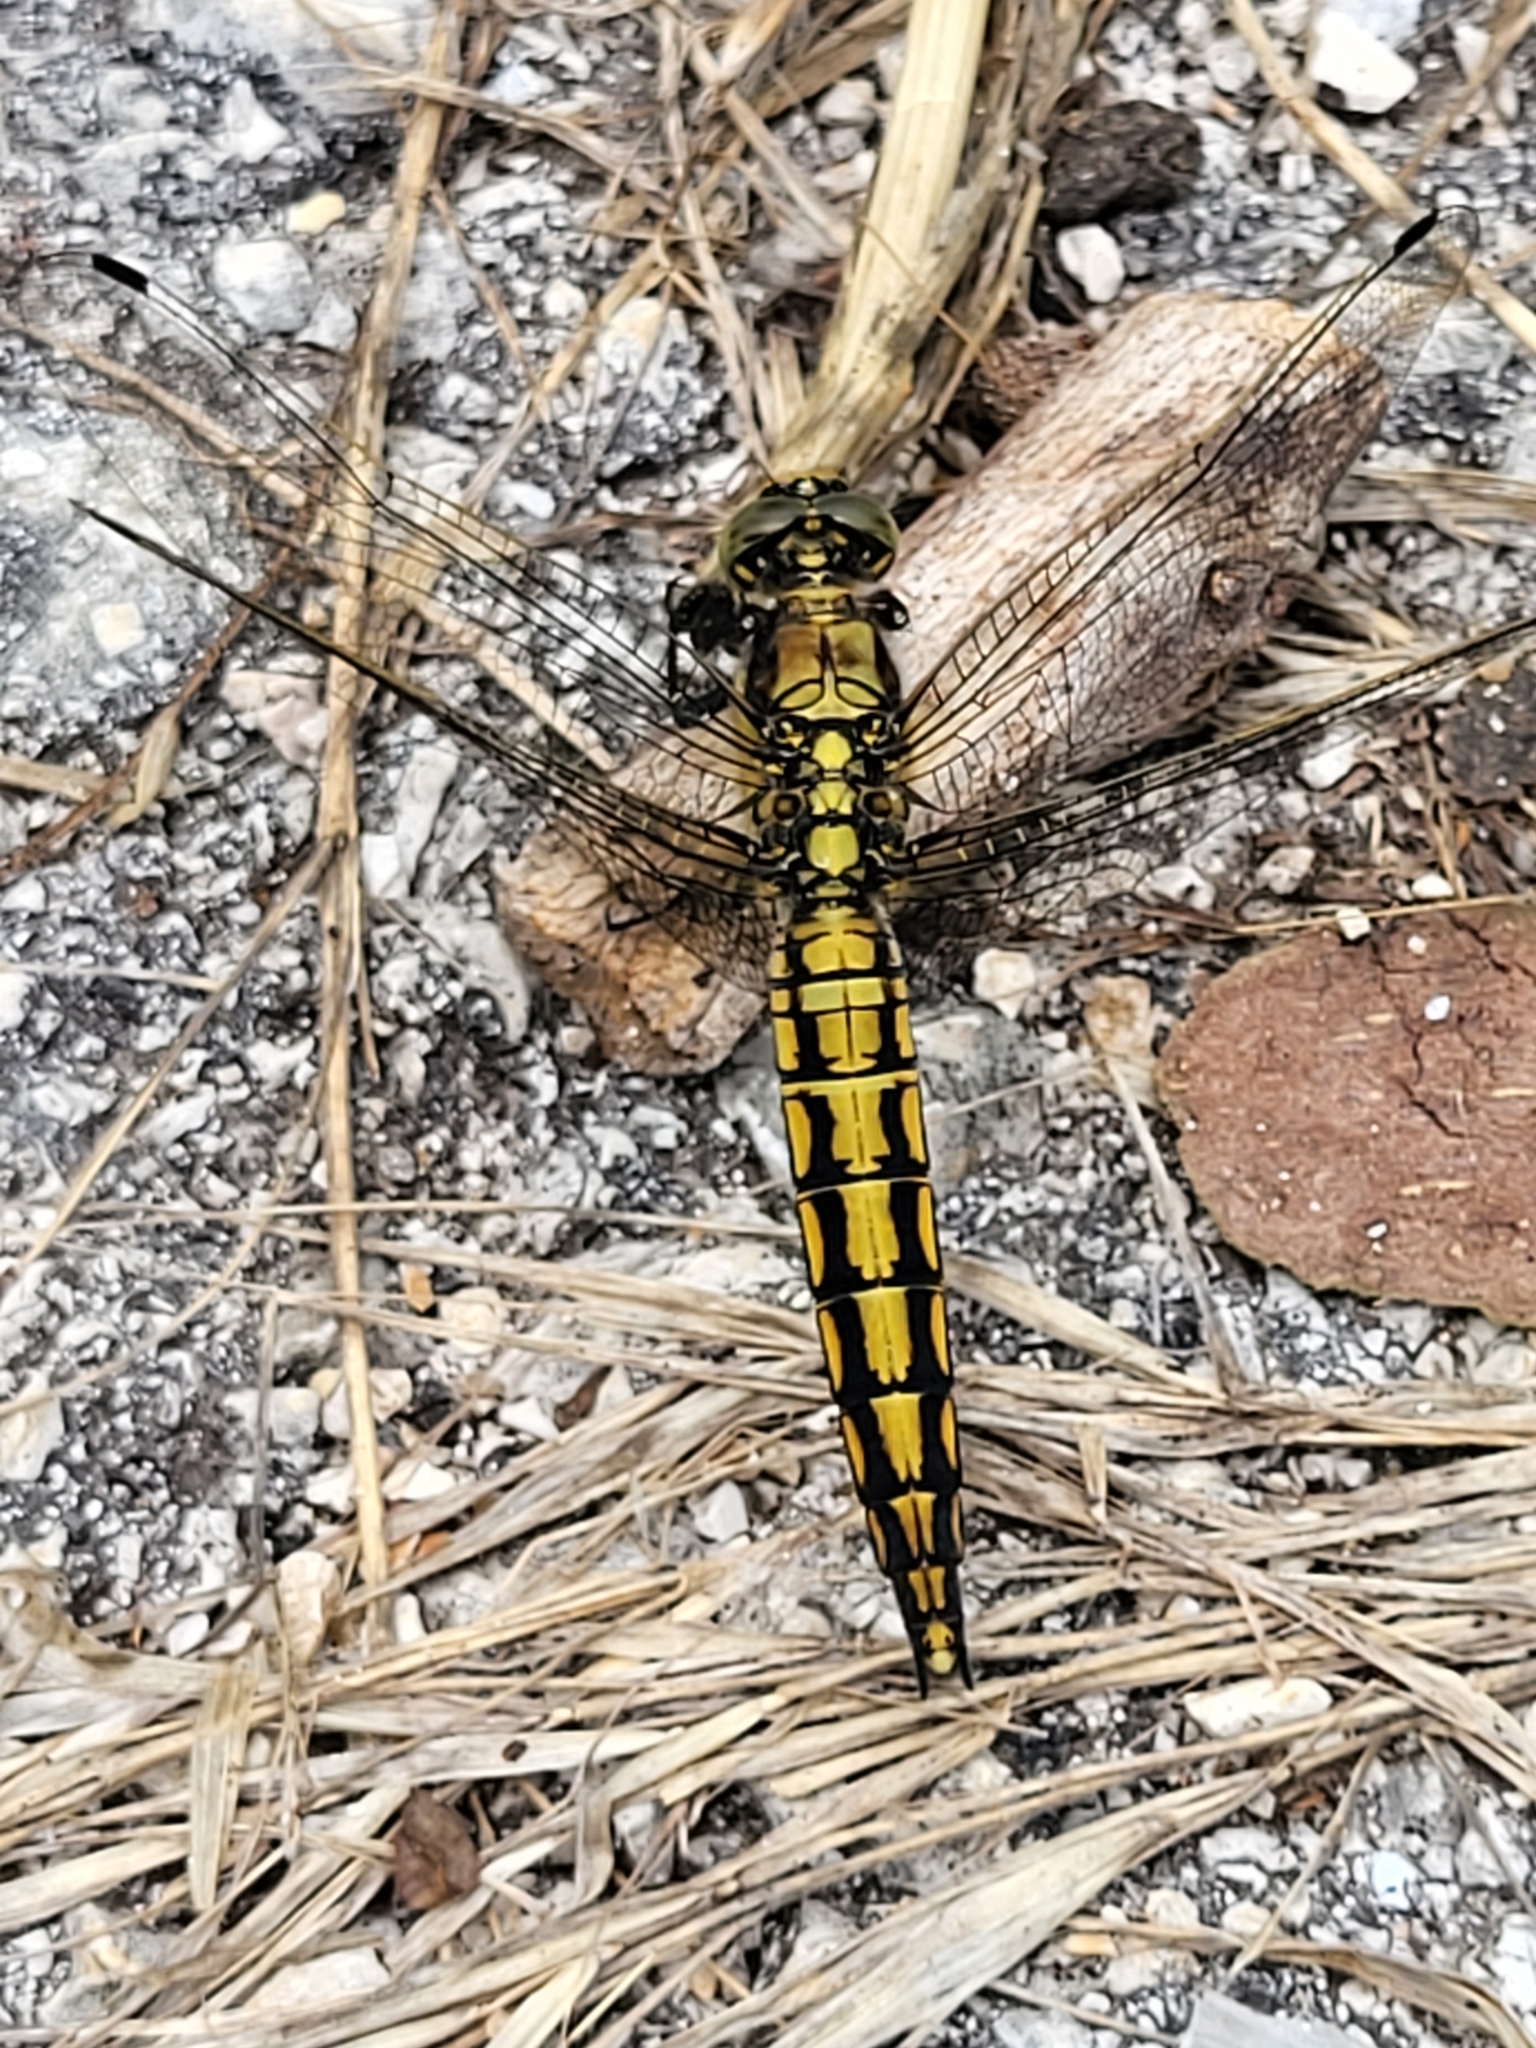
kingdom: Animalia
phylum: Arthropoda
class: Insecta
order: Odonata
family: Libellulidae
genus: Orthetrum
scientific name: Orthetrum cancellatum
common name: Black-tailed skimmer
